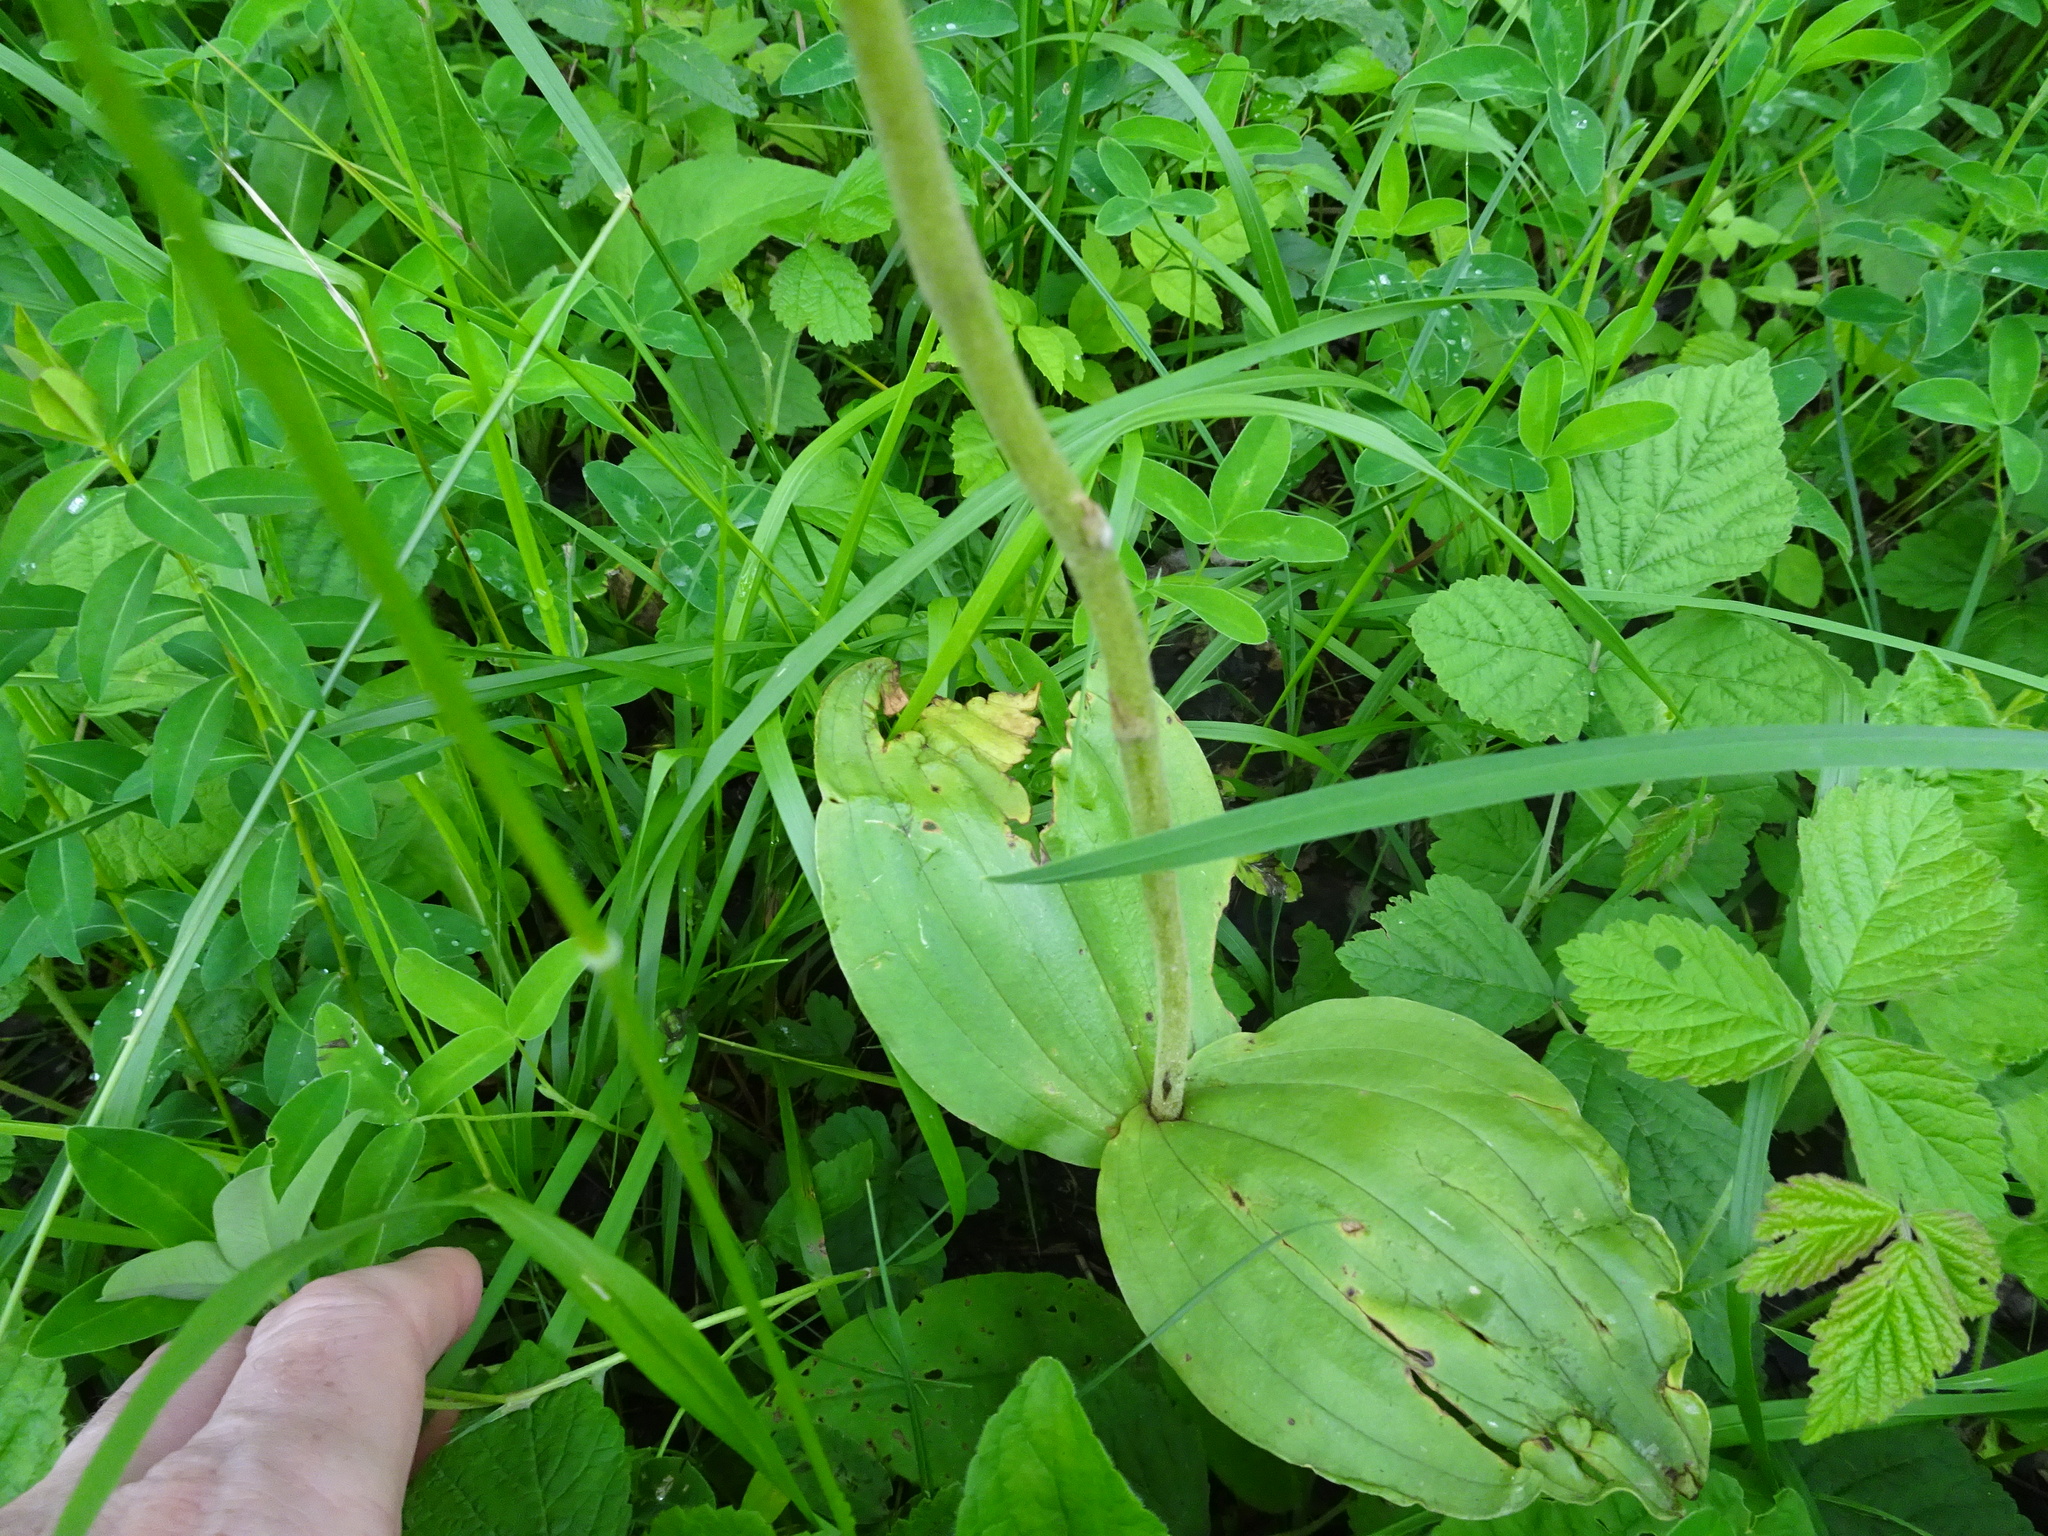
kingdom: Plantae
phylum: Tracheophyta
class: Liliopsida
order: Asparagales
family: Orchidaceae
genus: Neottia
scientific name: Neottia ovata
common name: Common twayblade
